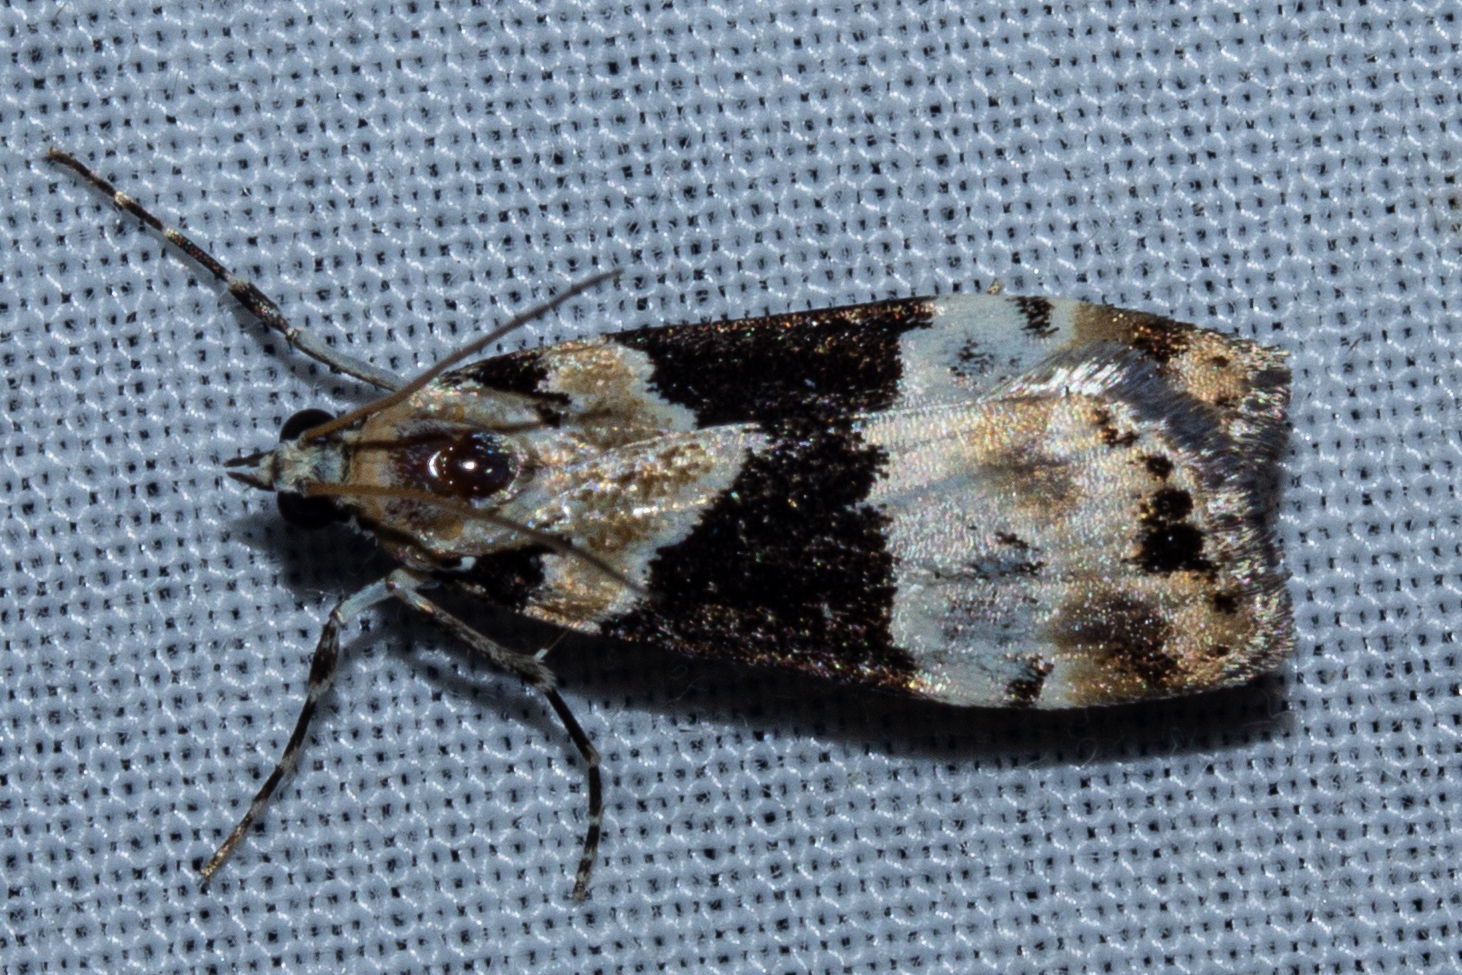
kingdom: Animalia
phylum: Arthropoda
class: Insecta
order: Lepidoptera
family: Crambidae
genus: Eudonia
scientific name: Eudonia aspidota
